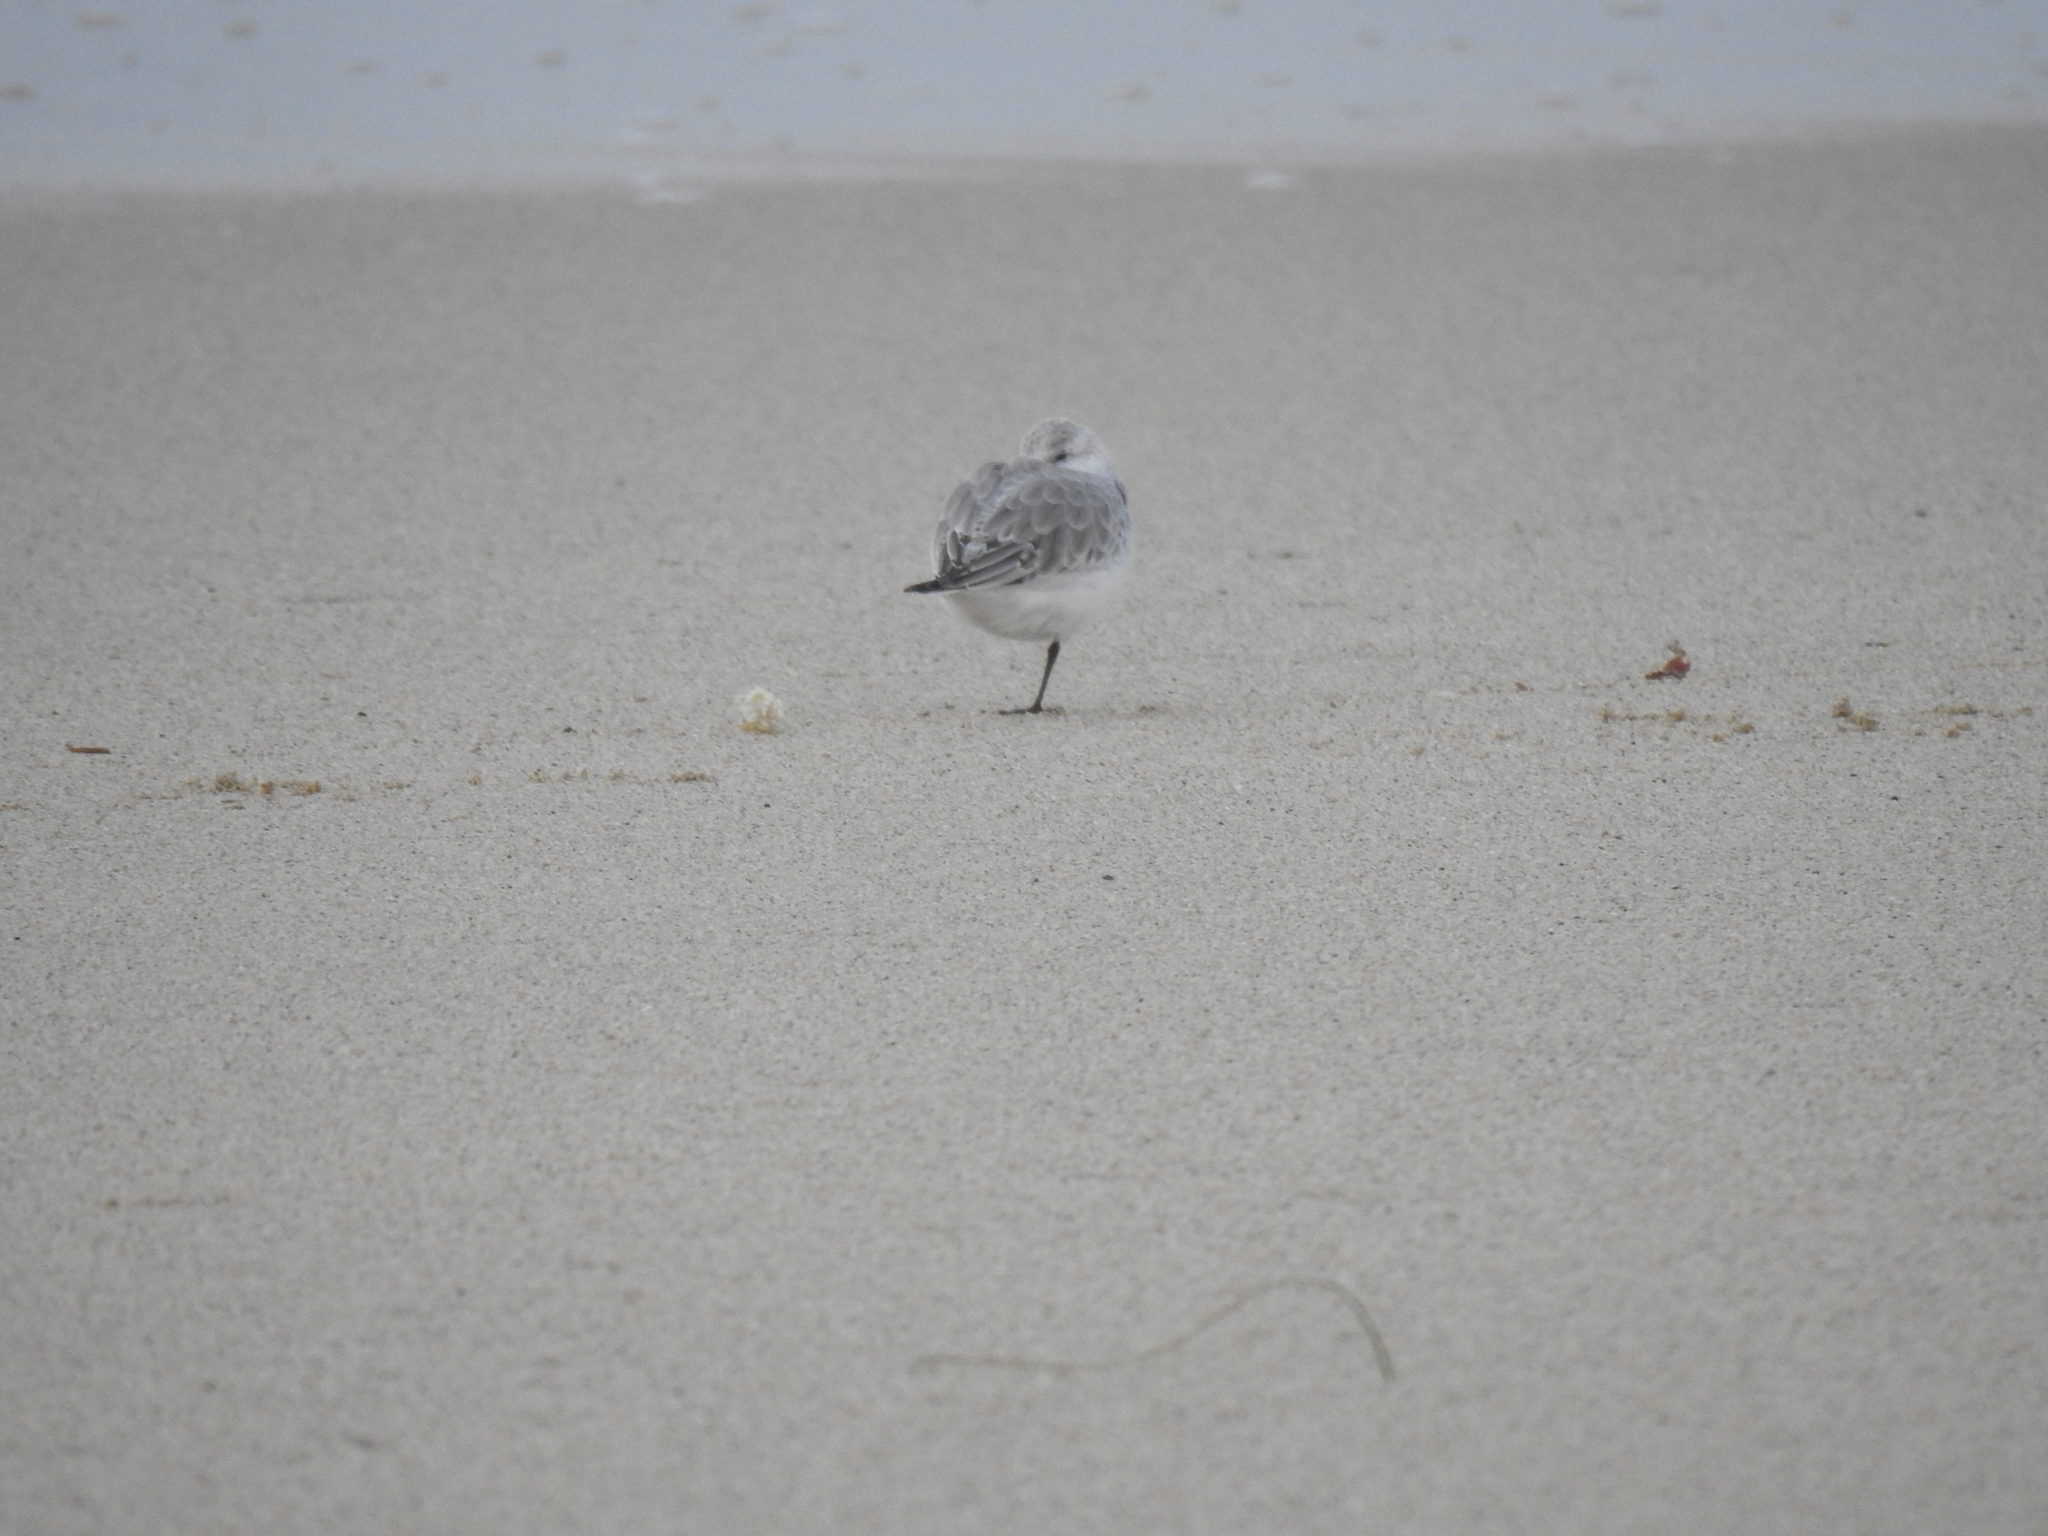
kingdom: Animalia
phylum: Chordata
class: Aves
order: Charadriiformes
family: Scolopacidae
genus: Calidris
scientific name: Calidris alba
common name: Sanderling
